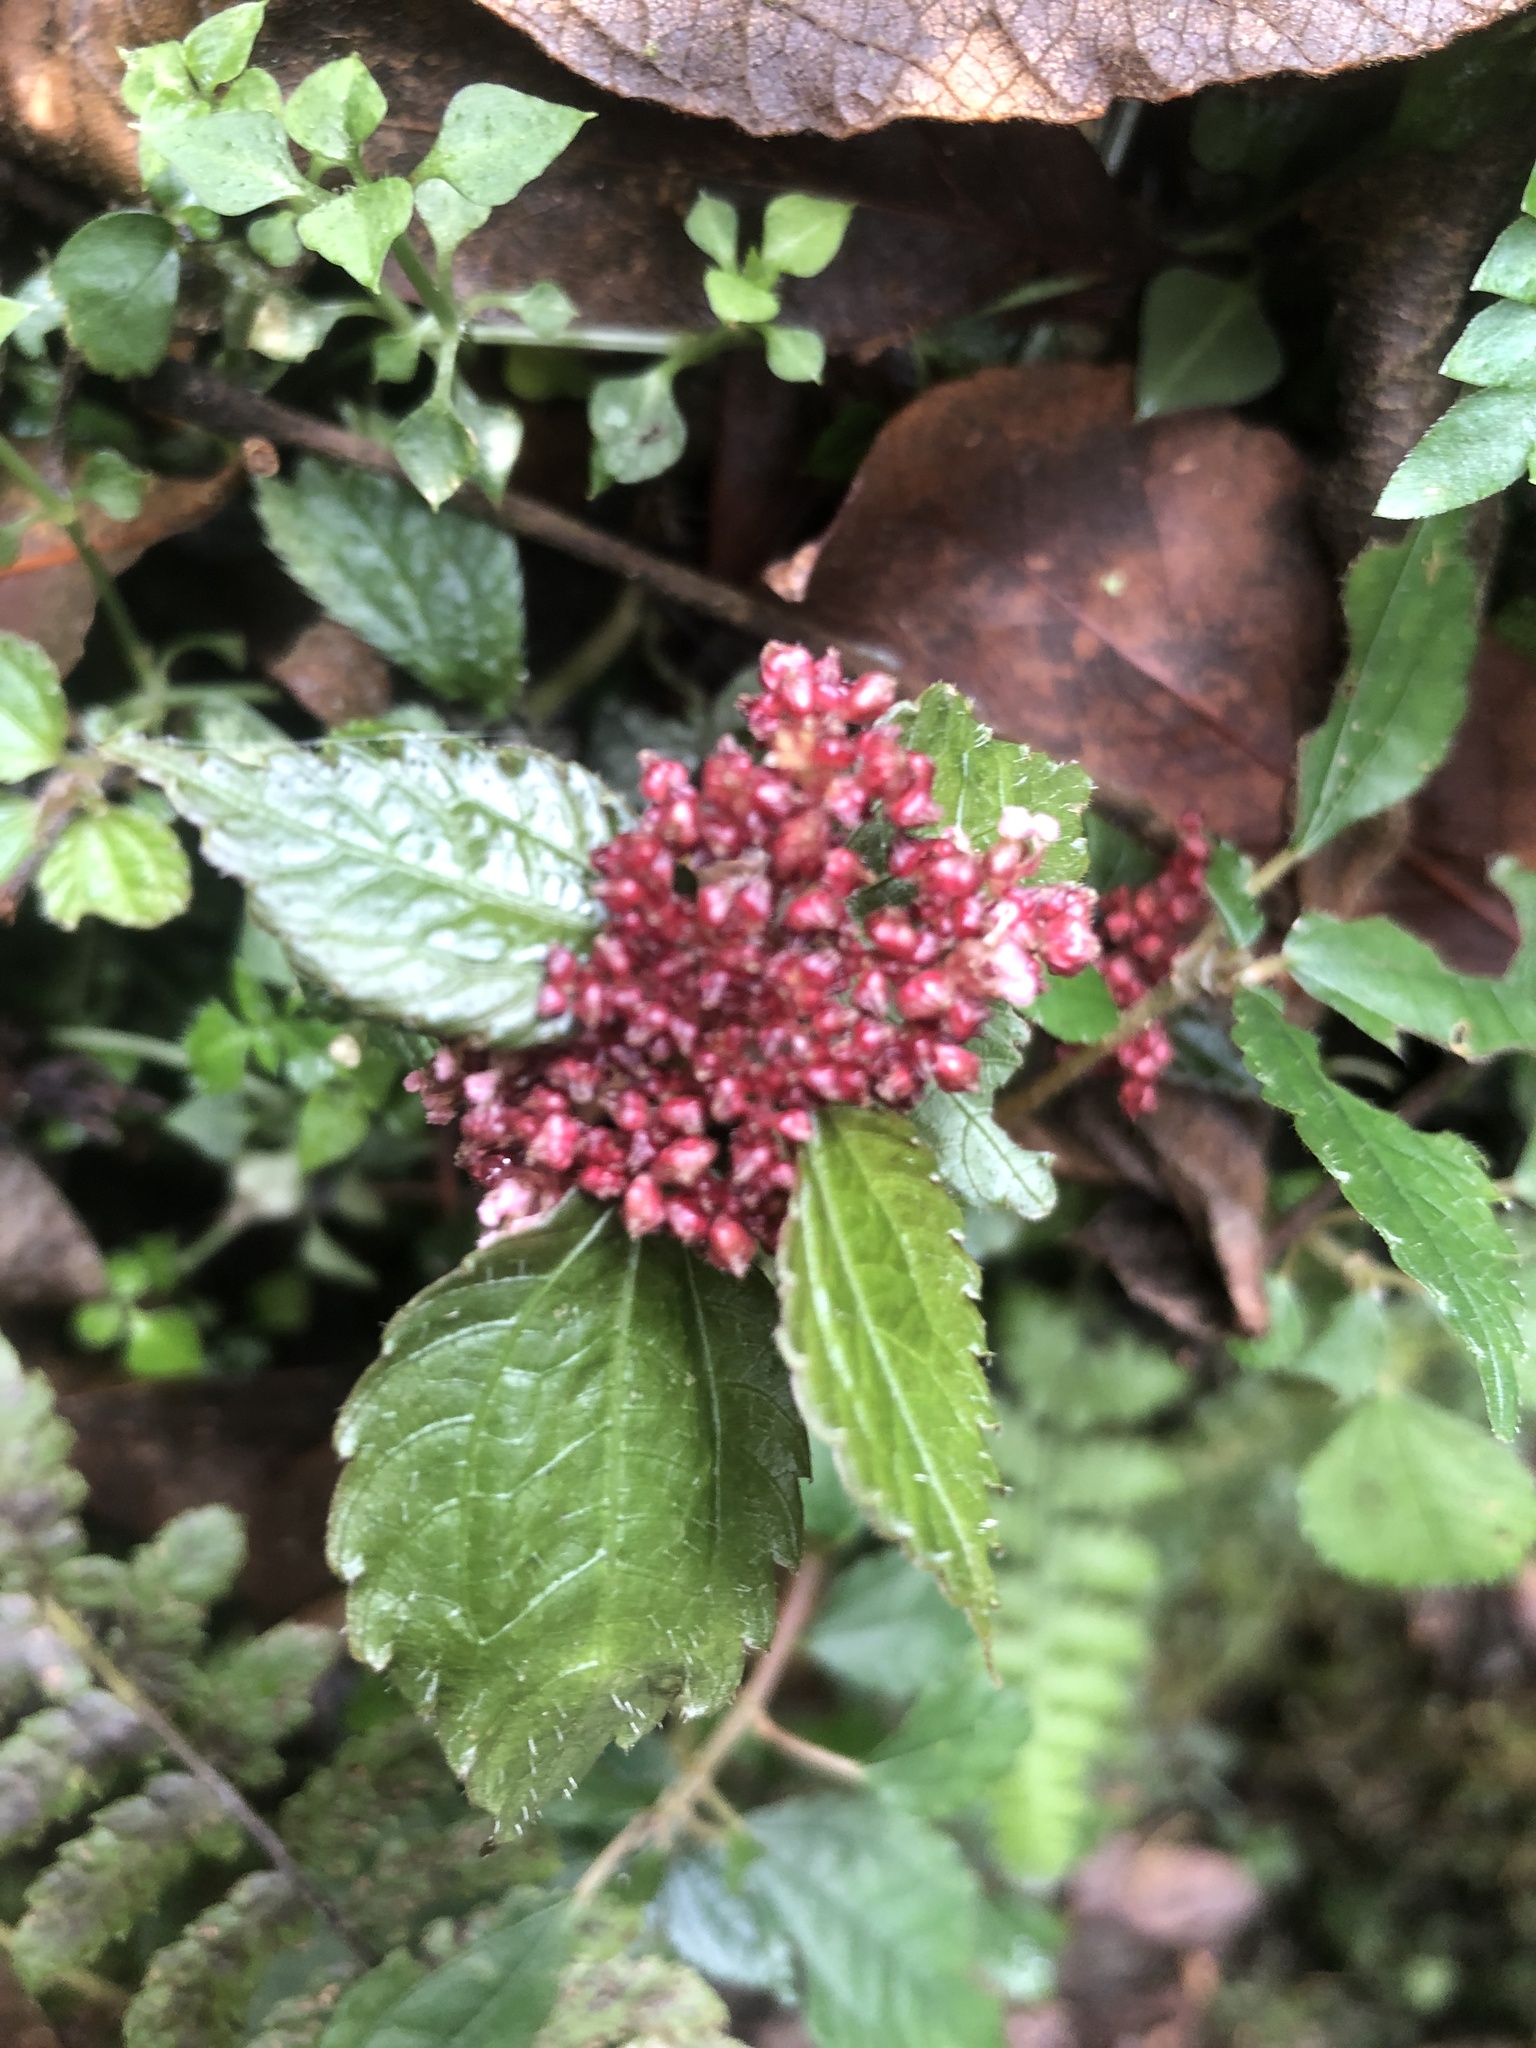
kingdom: Plantae
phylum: Tracheophyta
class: Magnoliopsida
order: Rosales
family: Urticaceae
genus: Pilea
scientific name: Pilea aquarum
